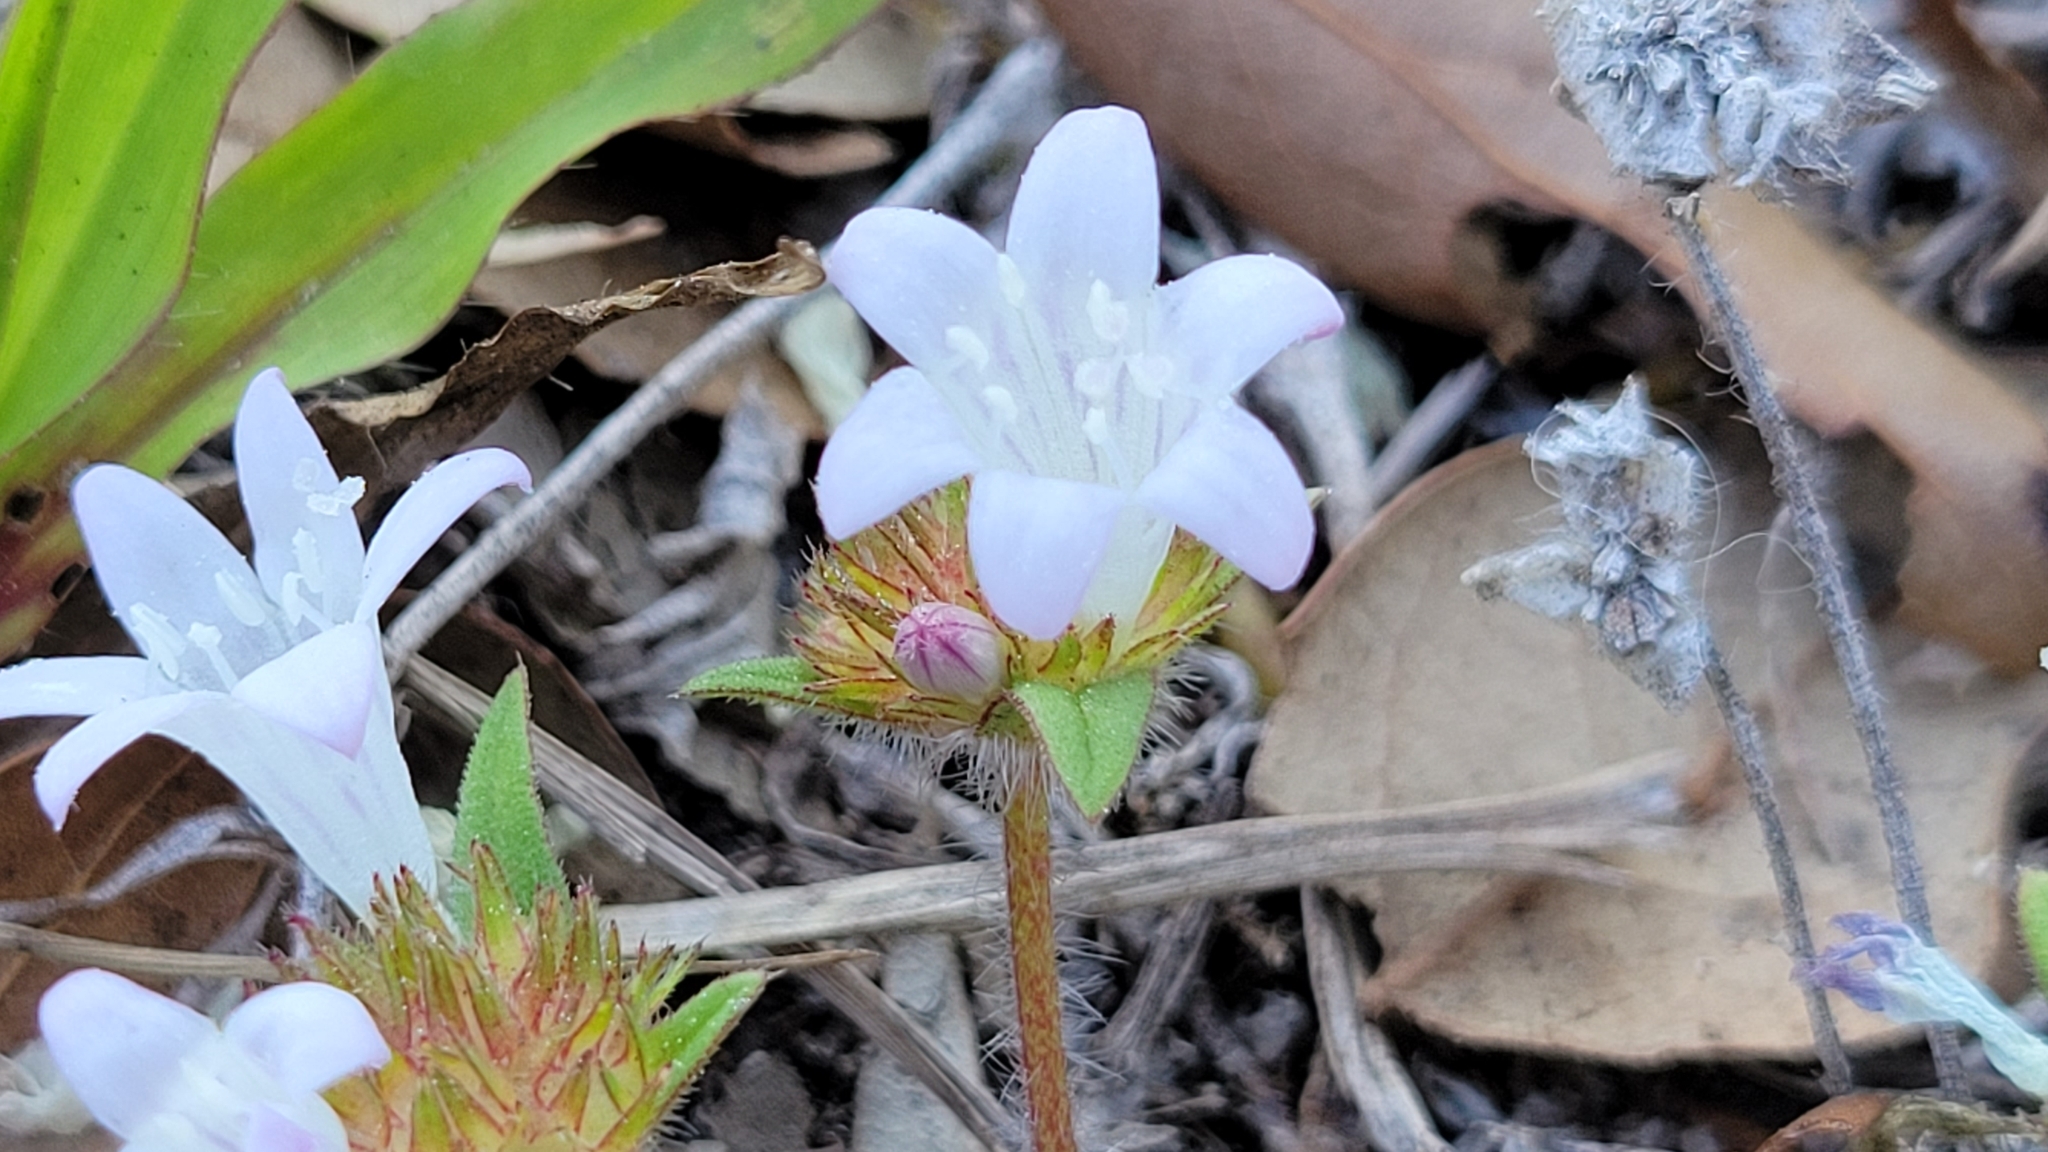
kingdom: Plantae
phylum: Tracheophyta
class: Magnoliopsida
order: Gentianales
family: Rubiaceae
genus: Richardia
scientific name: Richardia grandiflora
